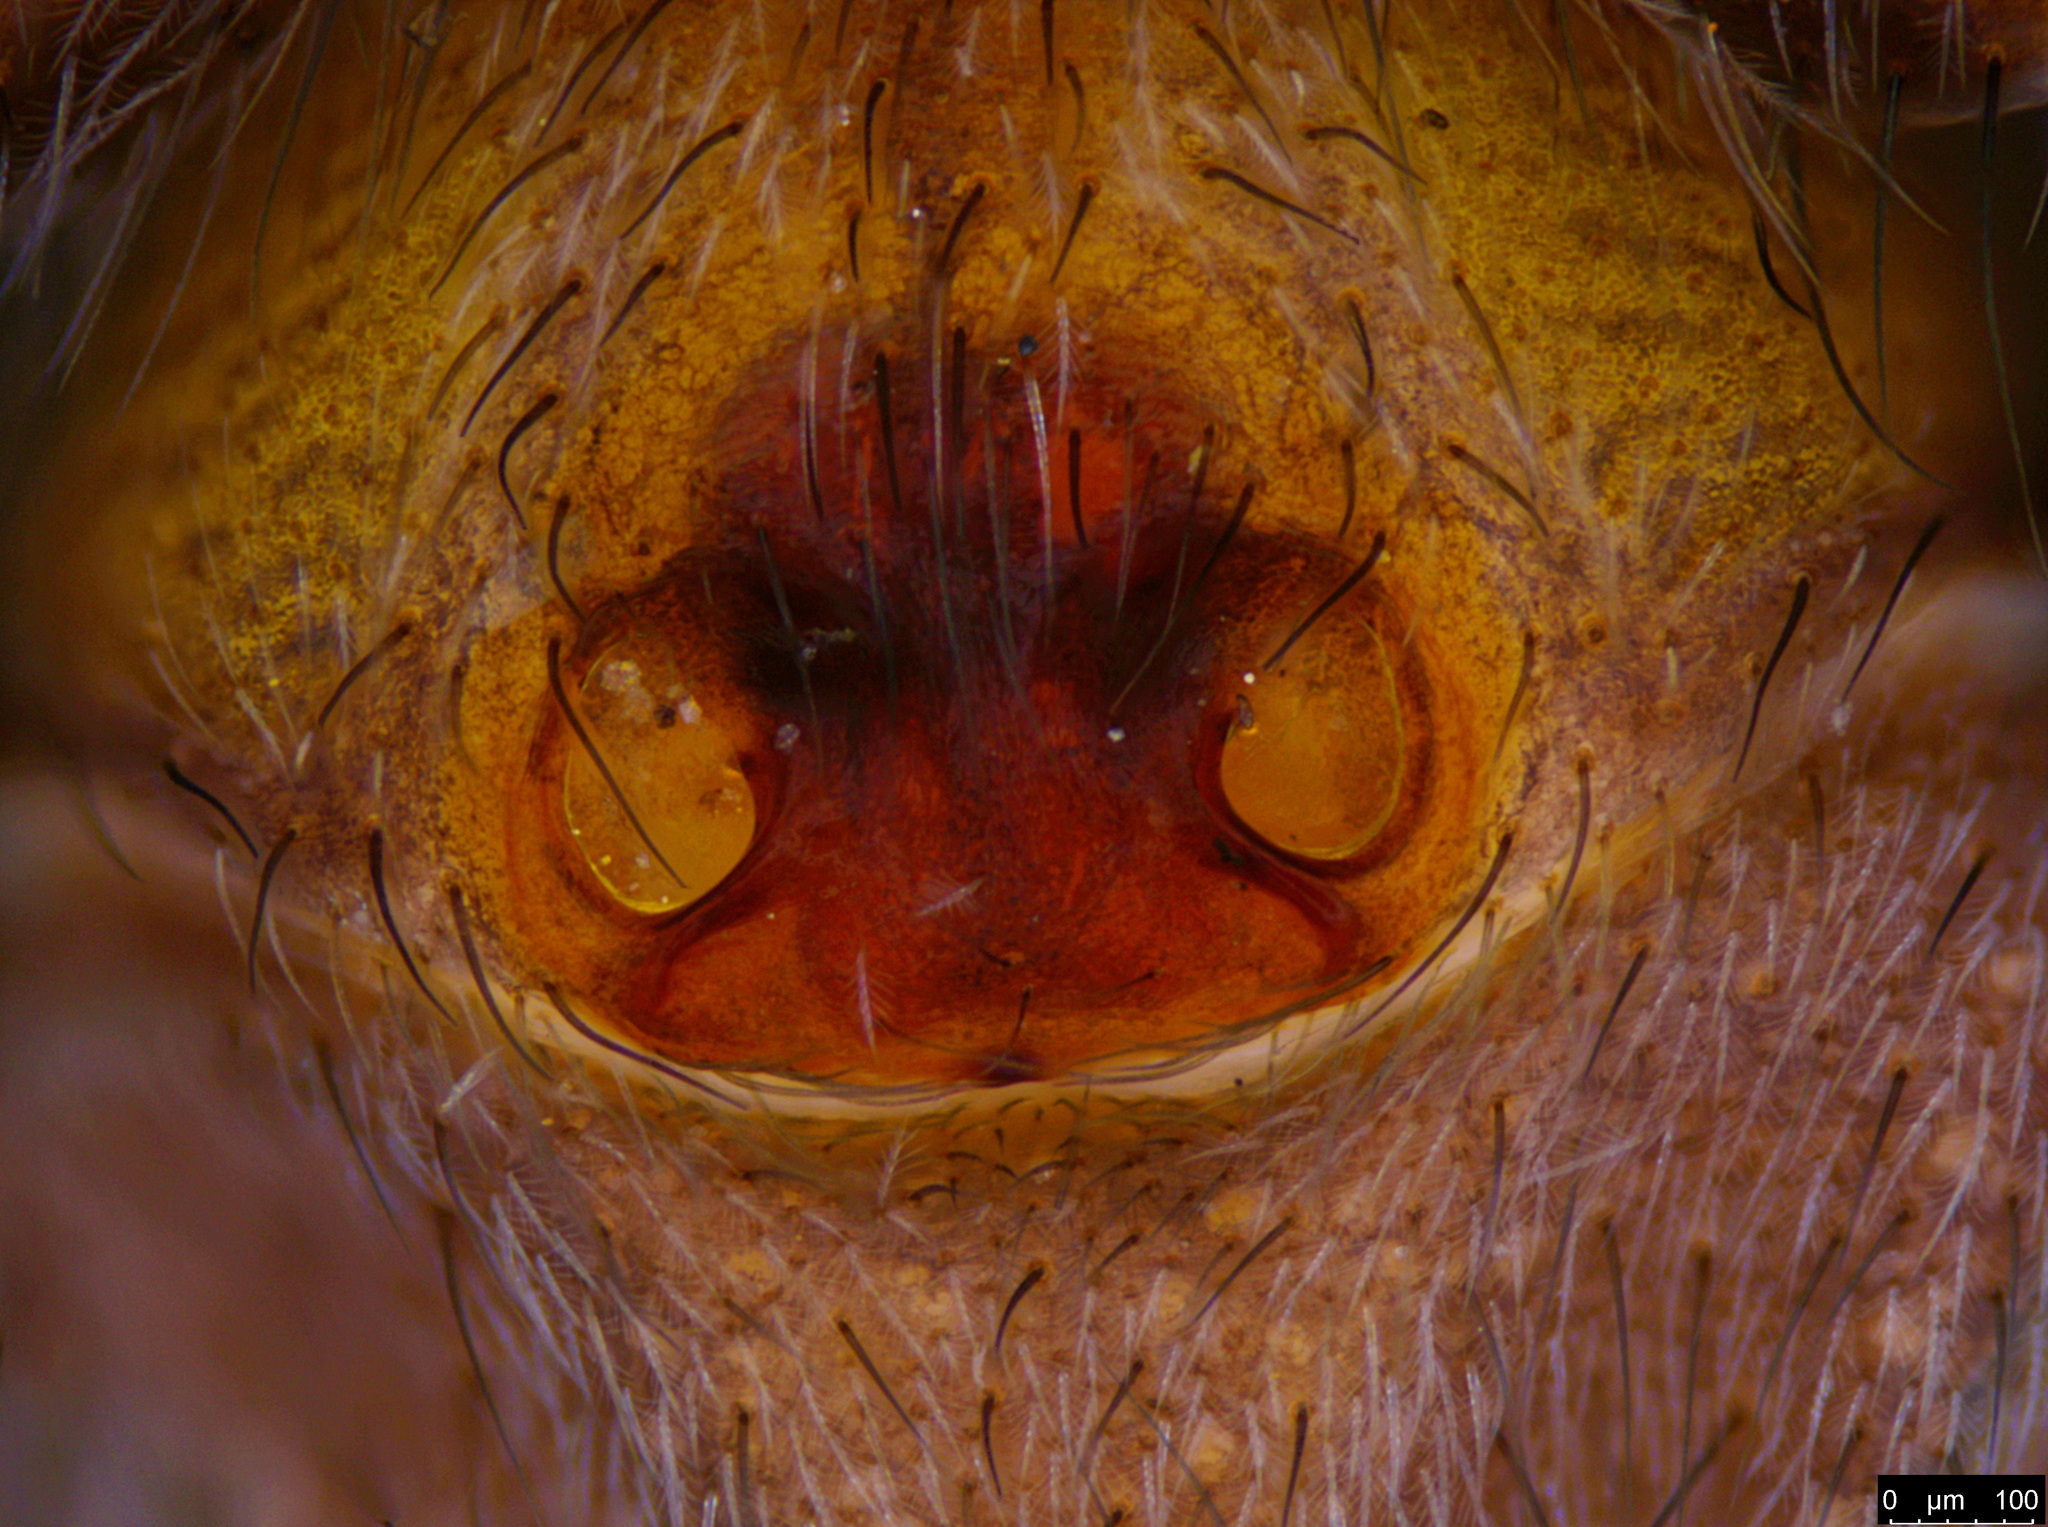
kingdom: Animalia
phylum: Arthropoda
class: Arachnida
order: Araneae
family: Corinnidae
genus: Nyssus
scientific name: Nyssus coloripes
